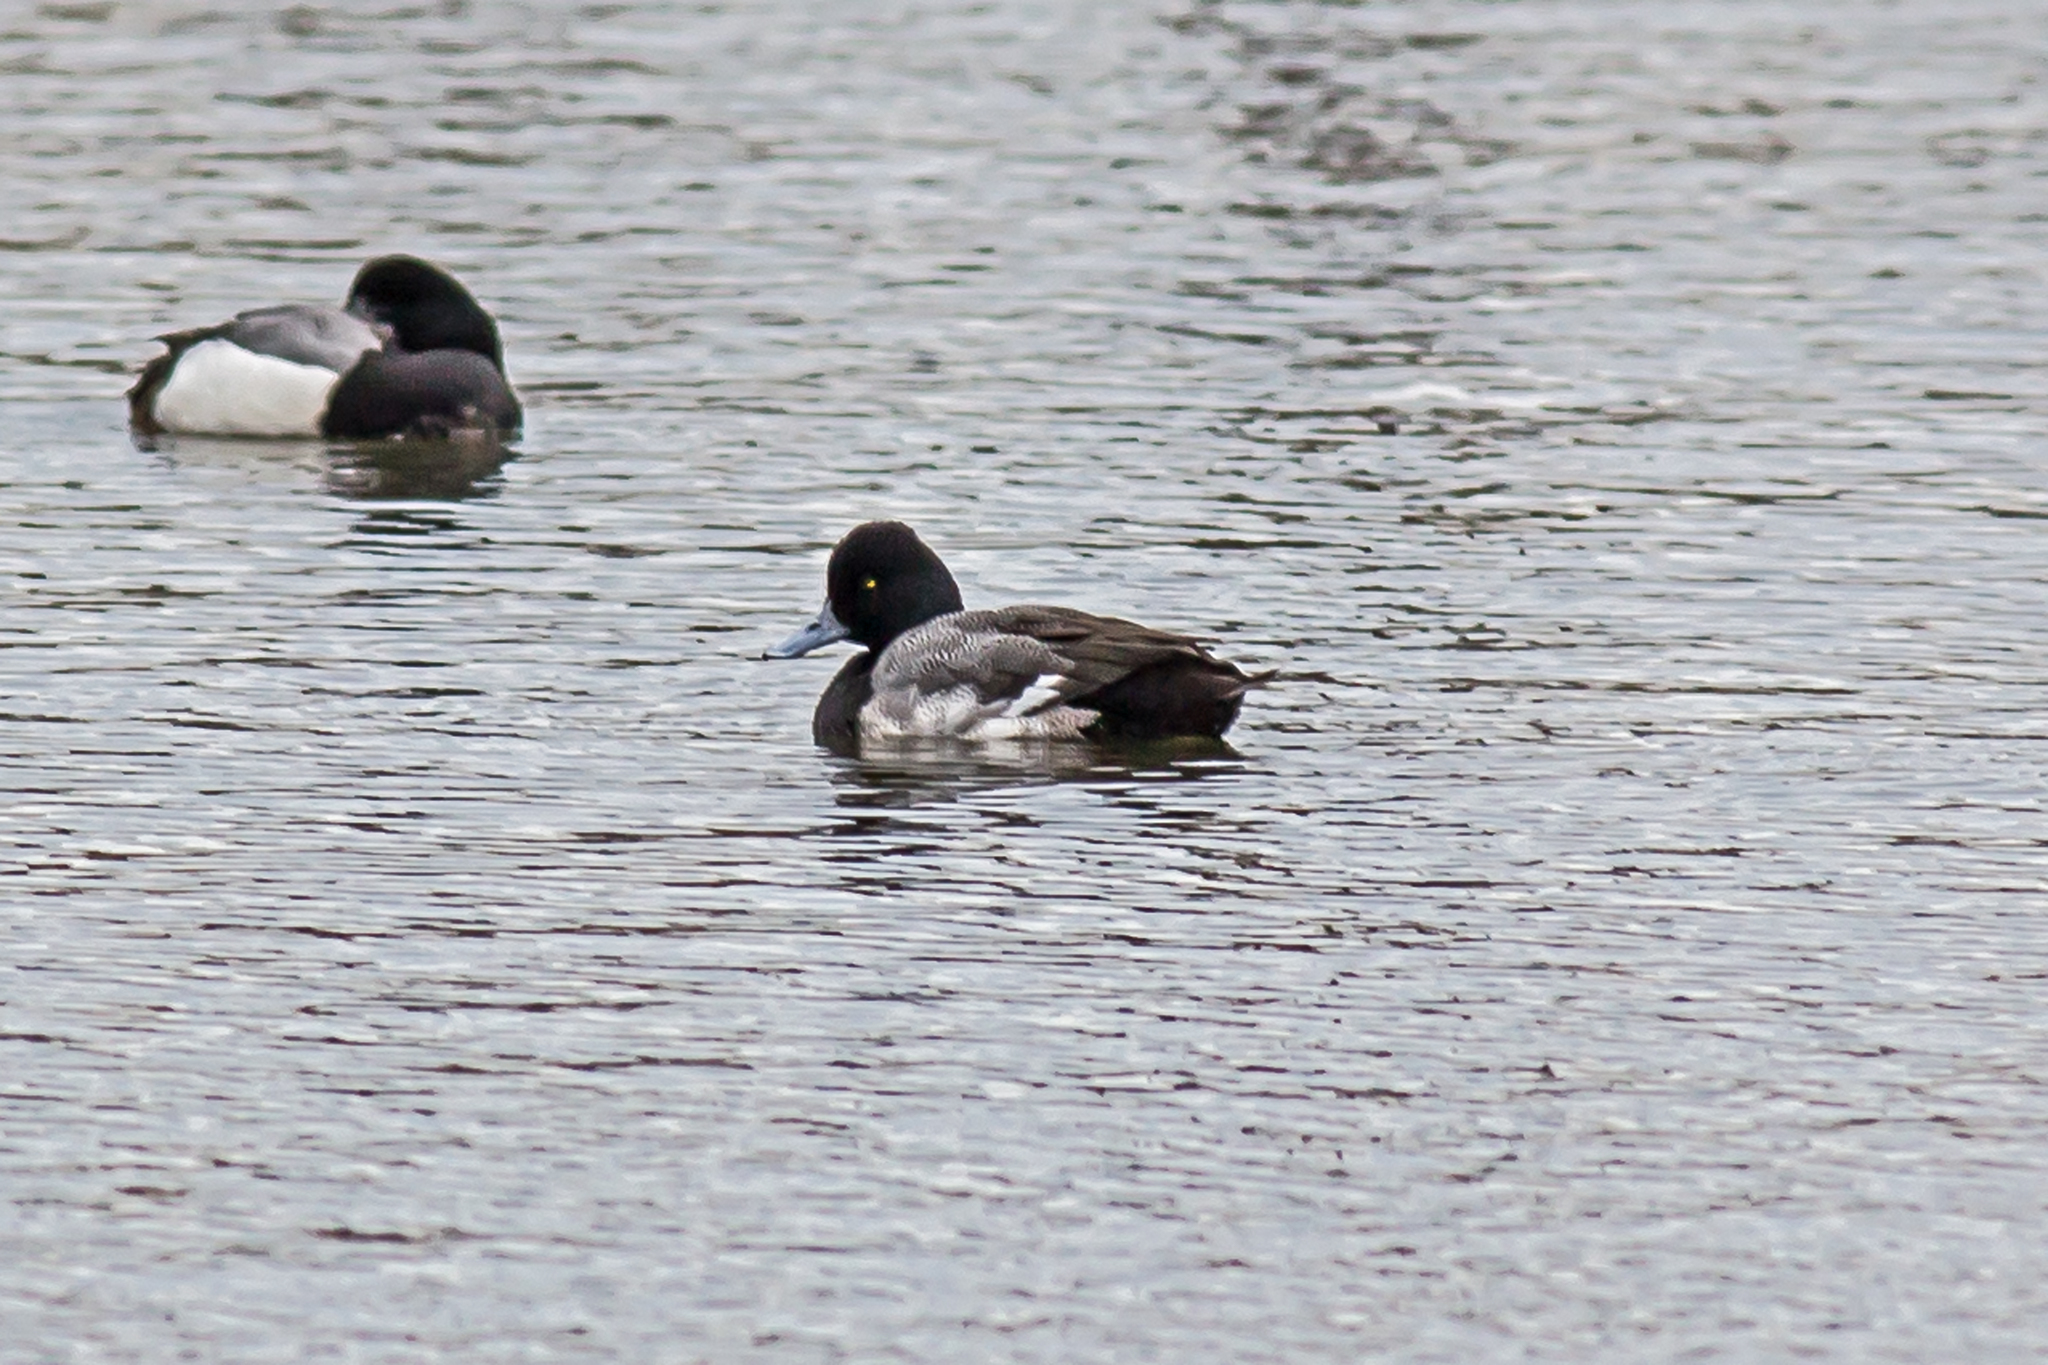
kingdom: Animalia
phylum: Chordata
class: Aves
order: Anseriformes
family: Anatidae
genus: Aythya
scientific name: Aythya affinis
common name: Lesser scaup
